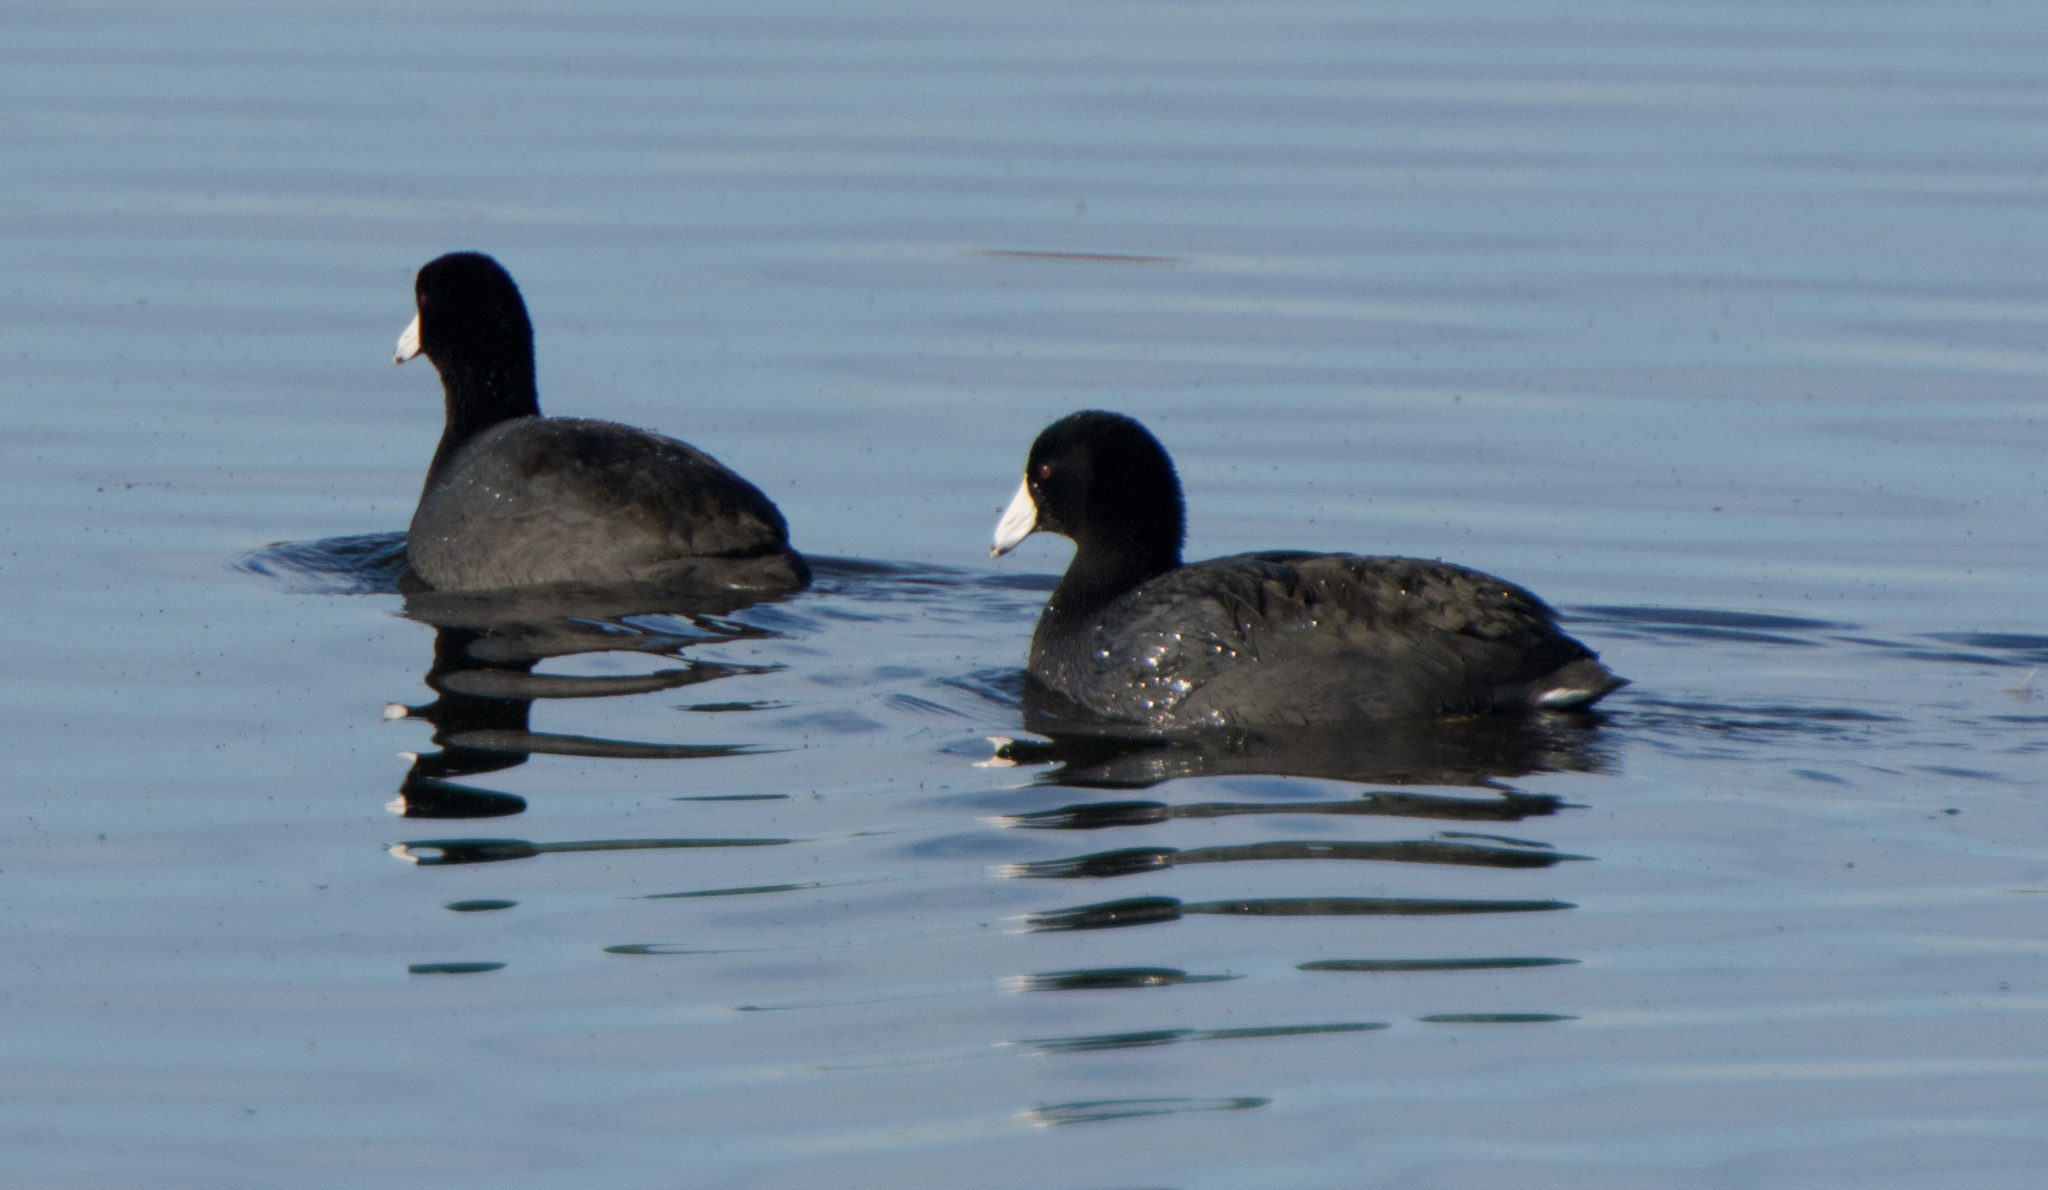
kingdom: Animalia
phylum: Chordata
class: Aves
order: Gruiformes
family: Rallidae
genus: Fulica
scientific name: Fulica americana
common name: American coot
